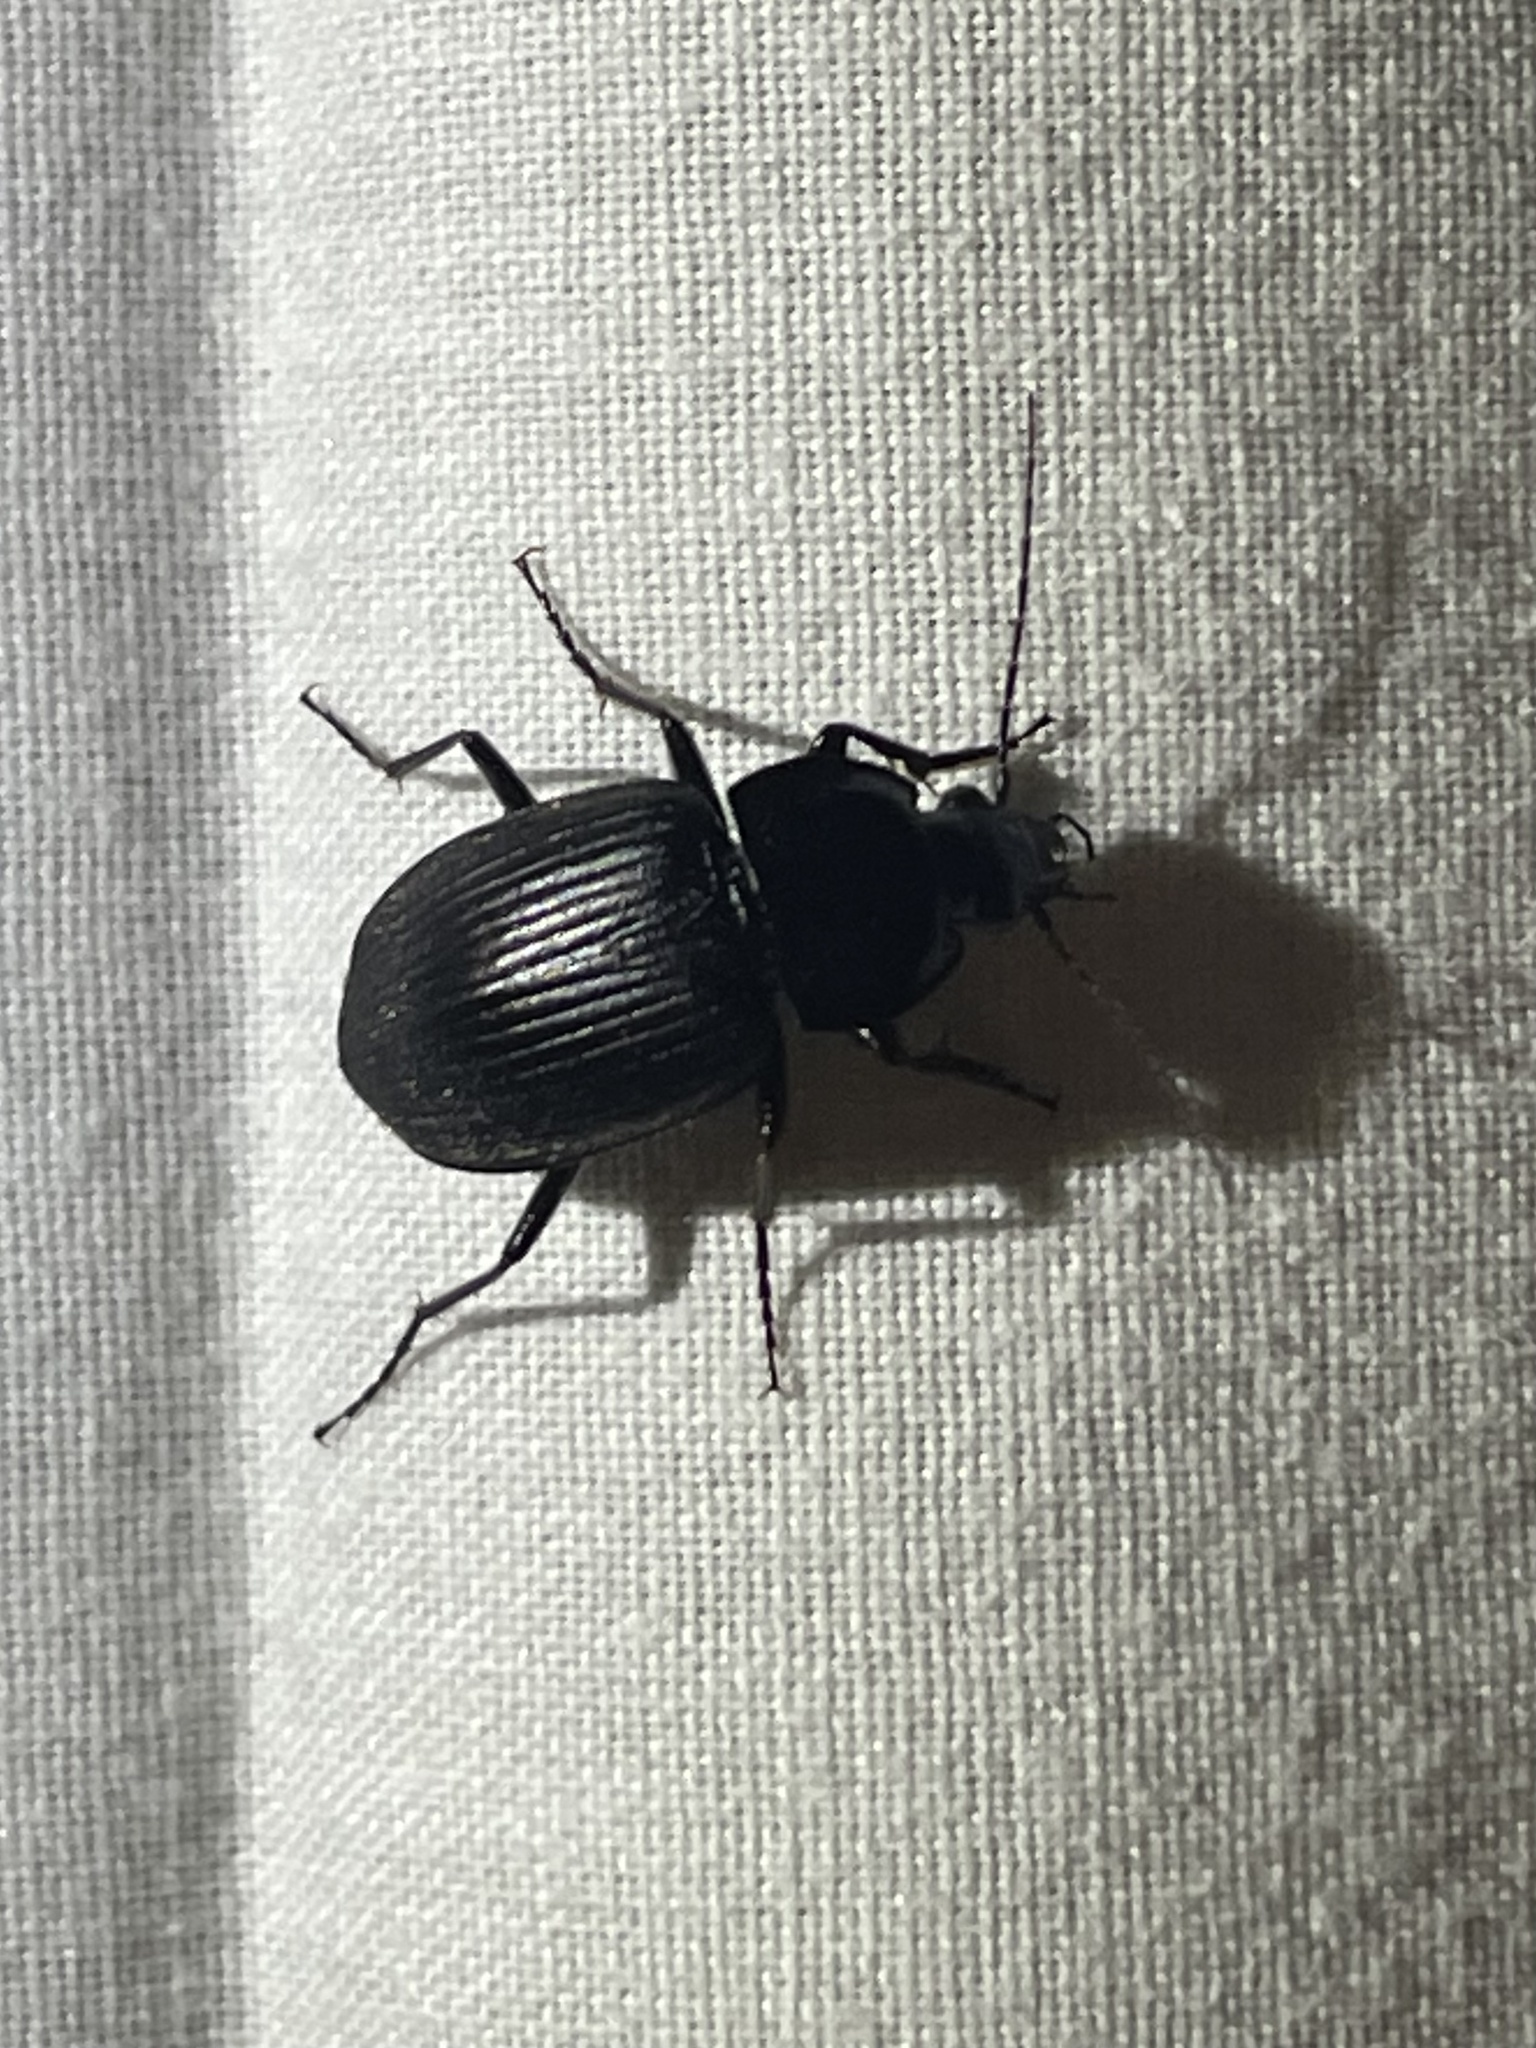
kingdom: Animalia
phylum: Arthropoda
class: Insecta
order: Coleoptera
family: Carabidae
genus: Chlaenius
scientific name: Chlaenius niger
